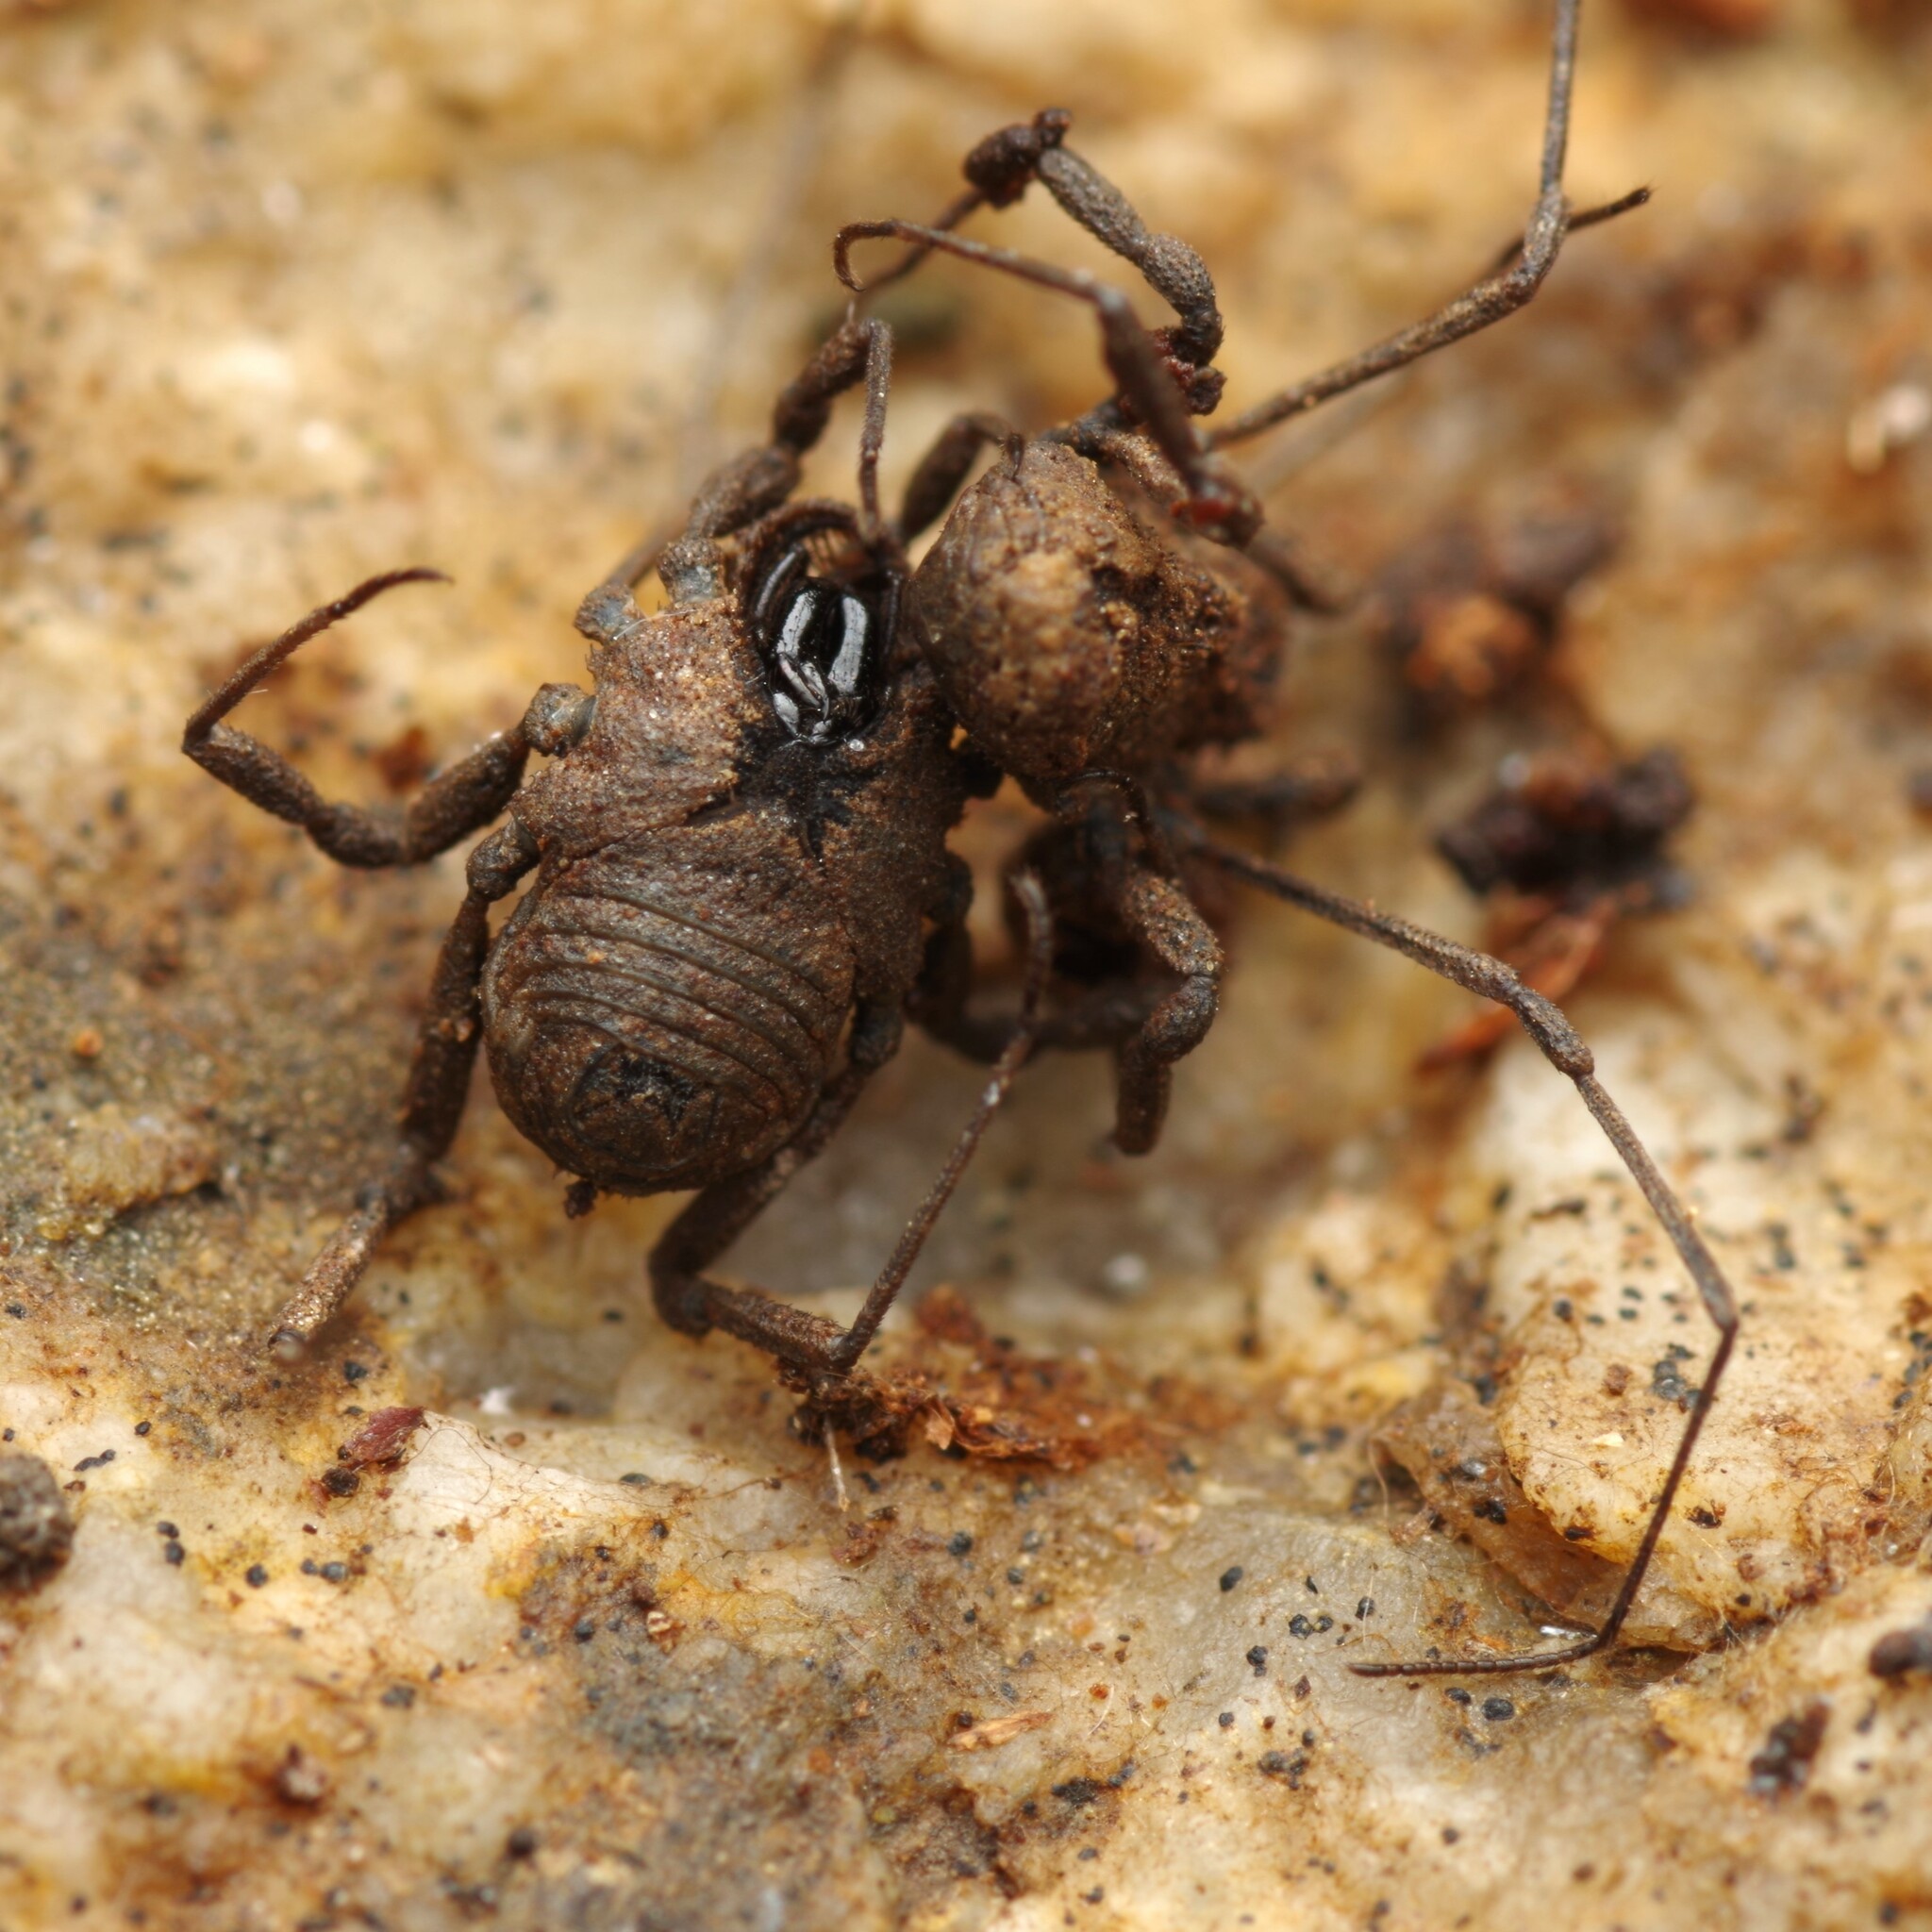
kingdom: Animalia
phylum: Arthropoda
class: Arachnida
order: Opiliones
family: Dicranolasmatidae
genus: Dicranolasma
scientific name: Dicranolasma soerensenii
